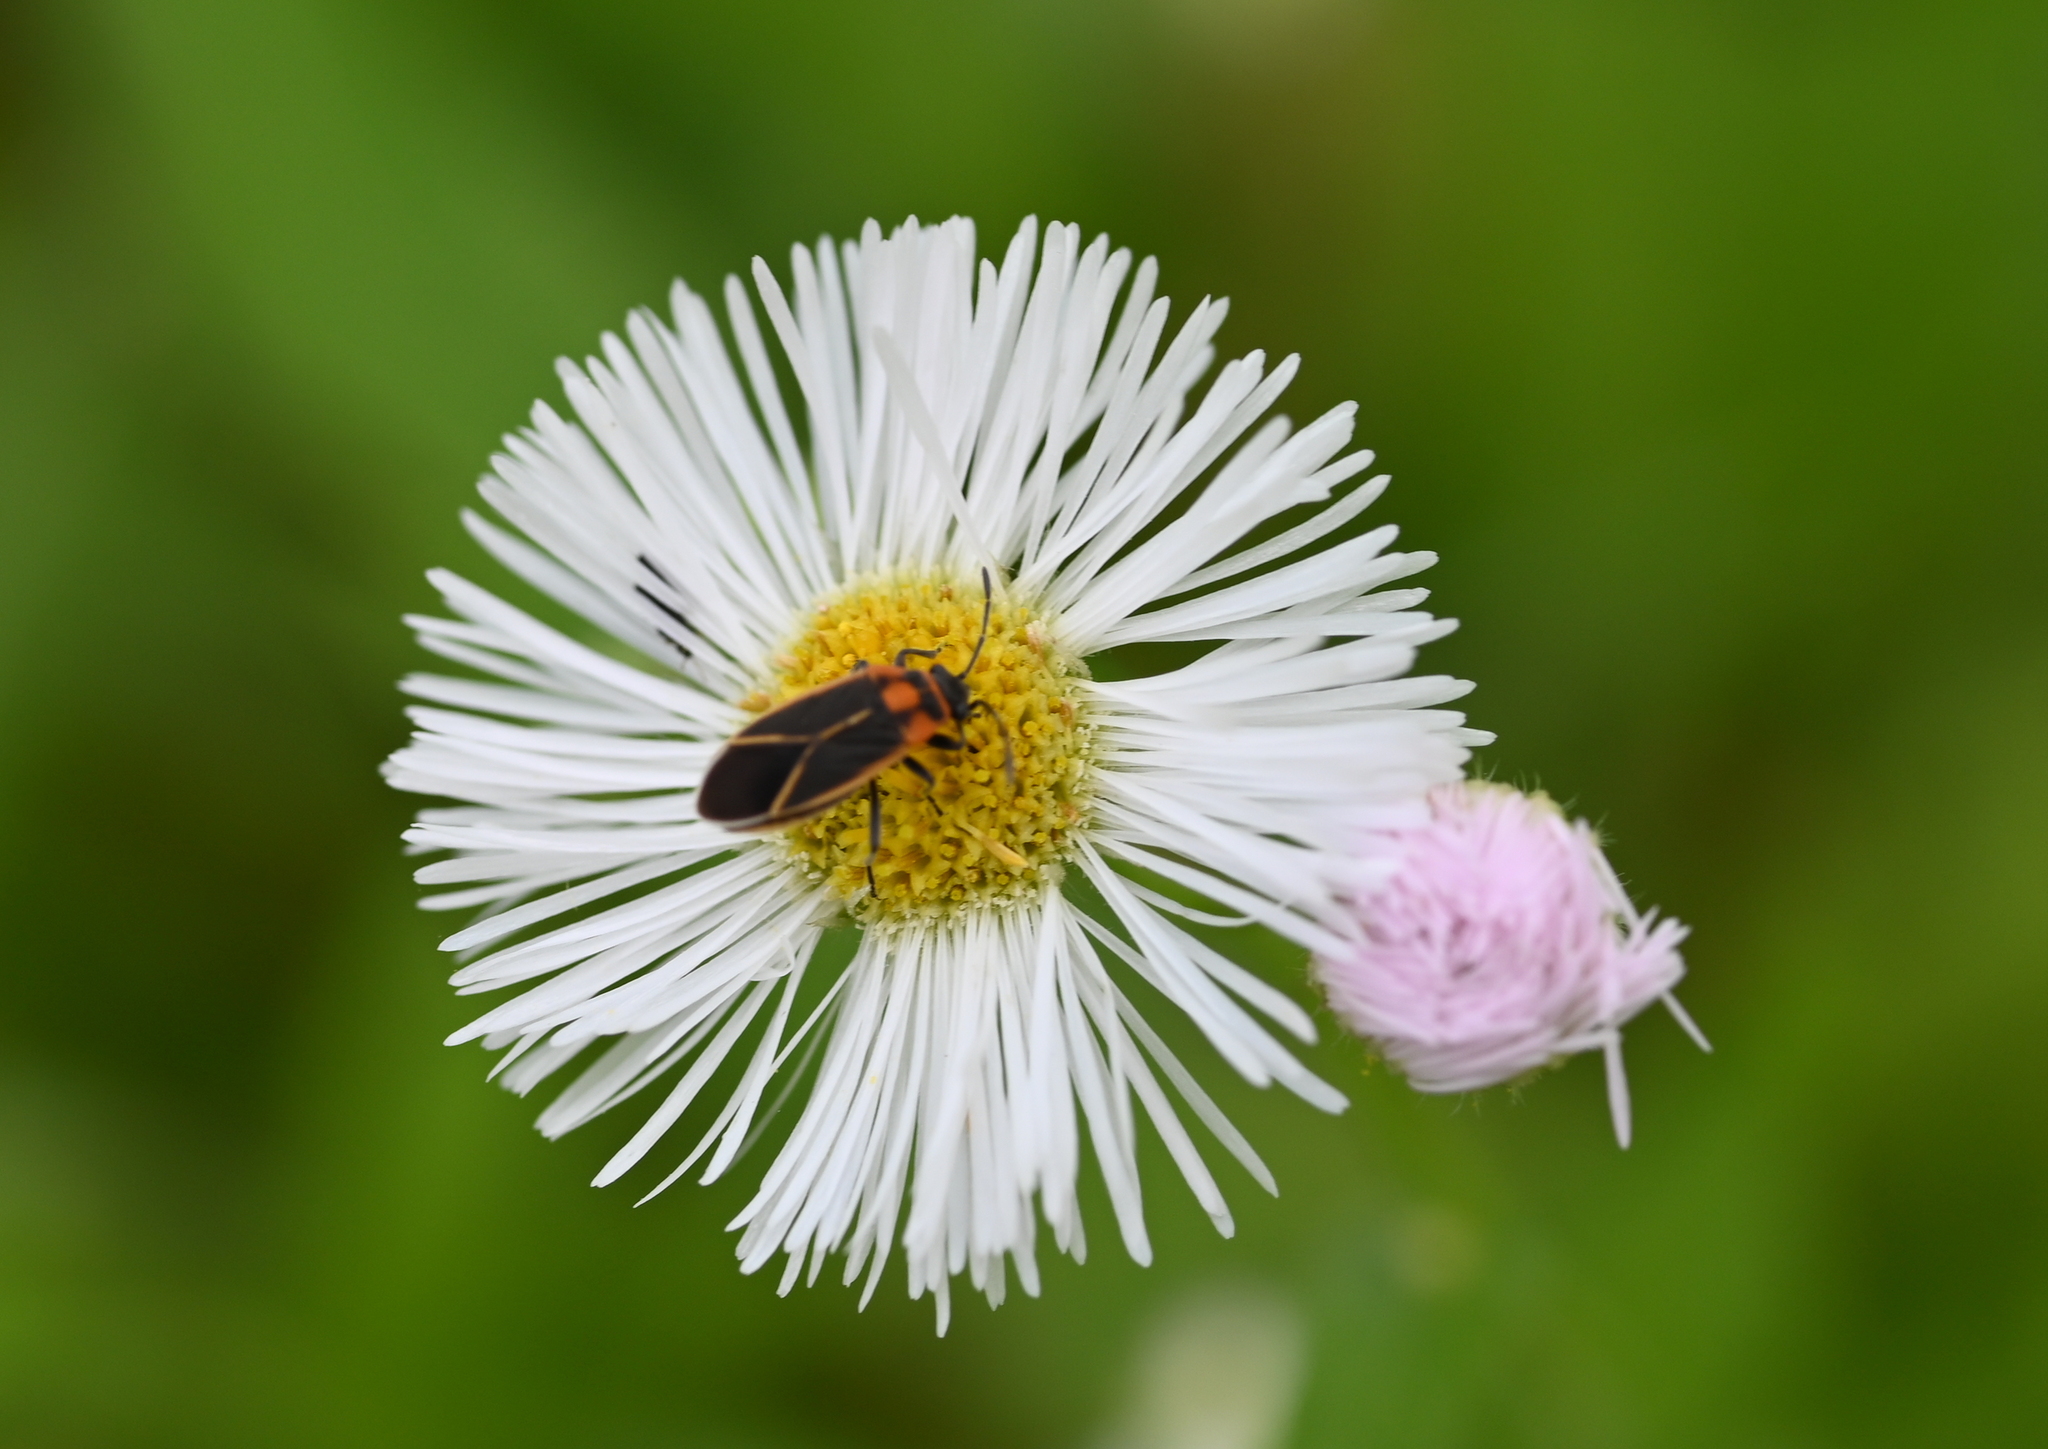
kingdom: Animalia
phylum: Arthropoda
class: Insecta
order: Hemiptera
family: Lygaeidae
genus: Ochrimnus
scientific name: Ochrimnus lineoloides
